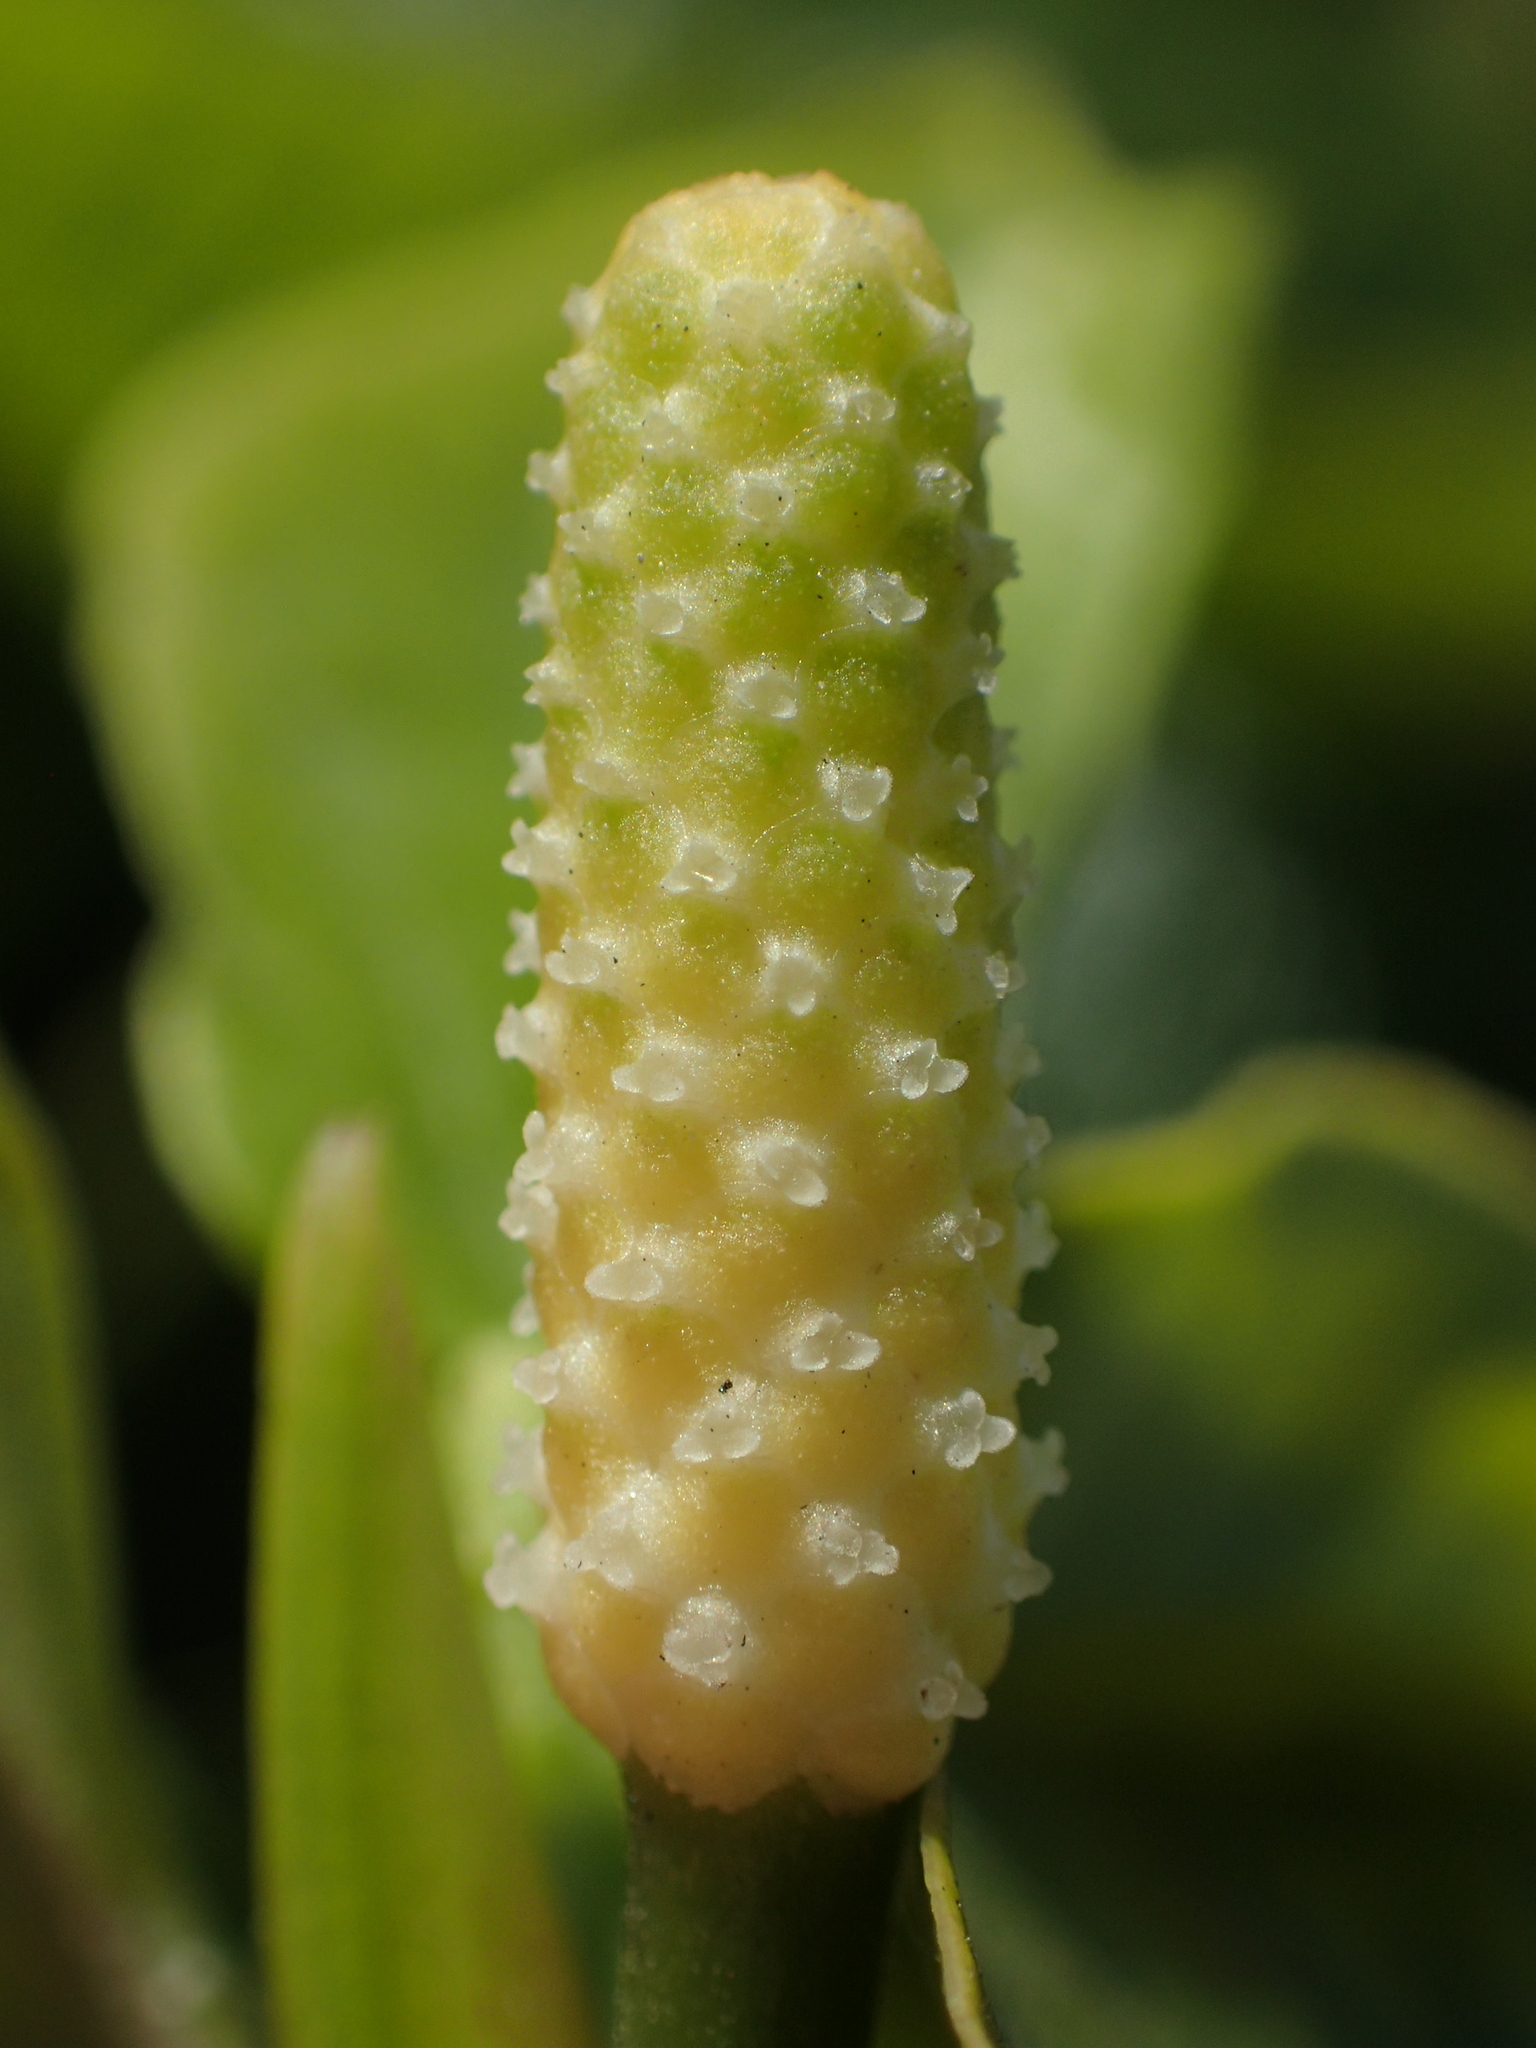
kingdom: Plantae
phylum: Tracheophyta
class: Magnoliopsida
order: Piperales
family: Piperaceae
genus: Piper
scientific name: Piper sarmentosum
